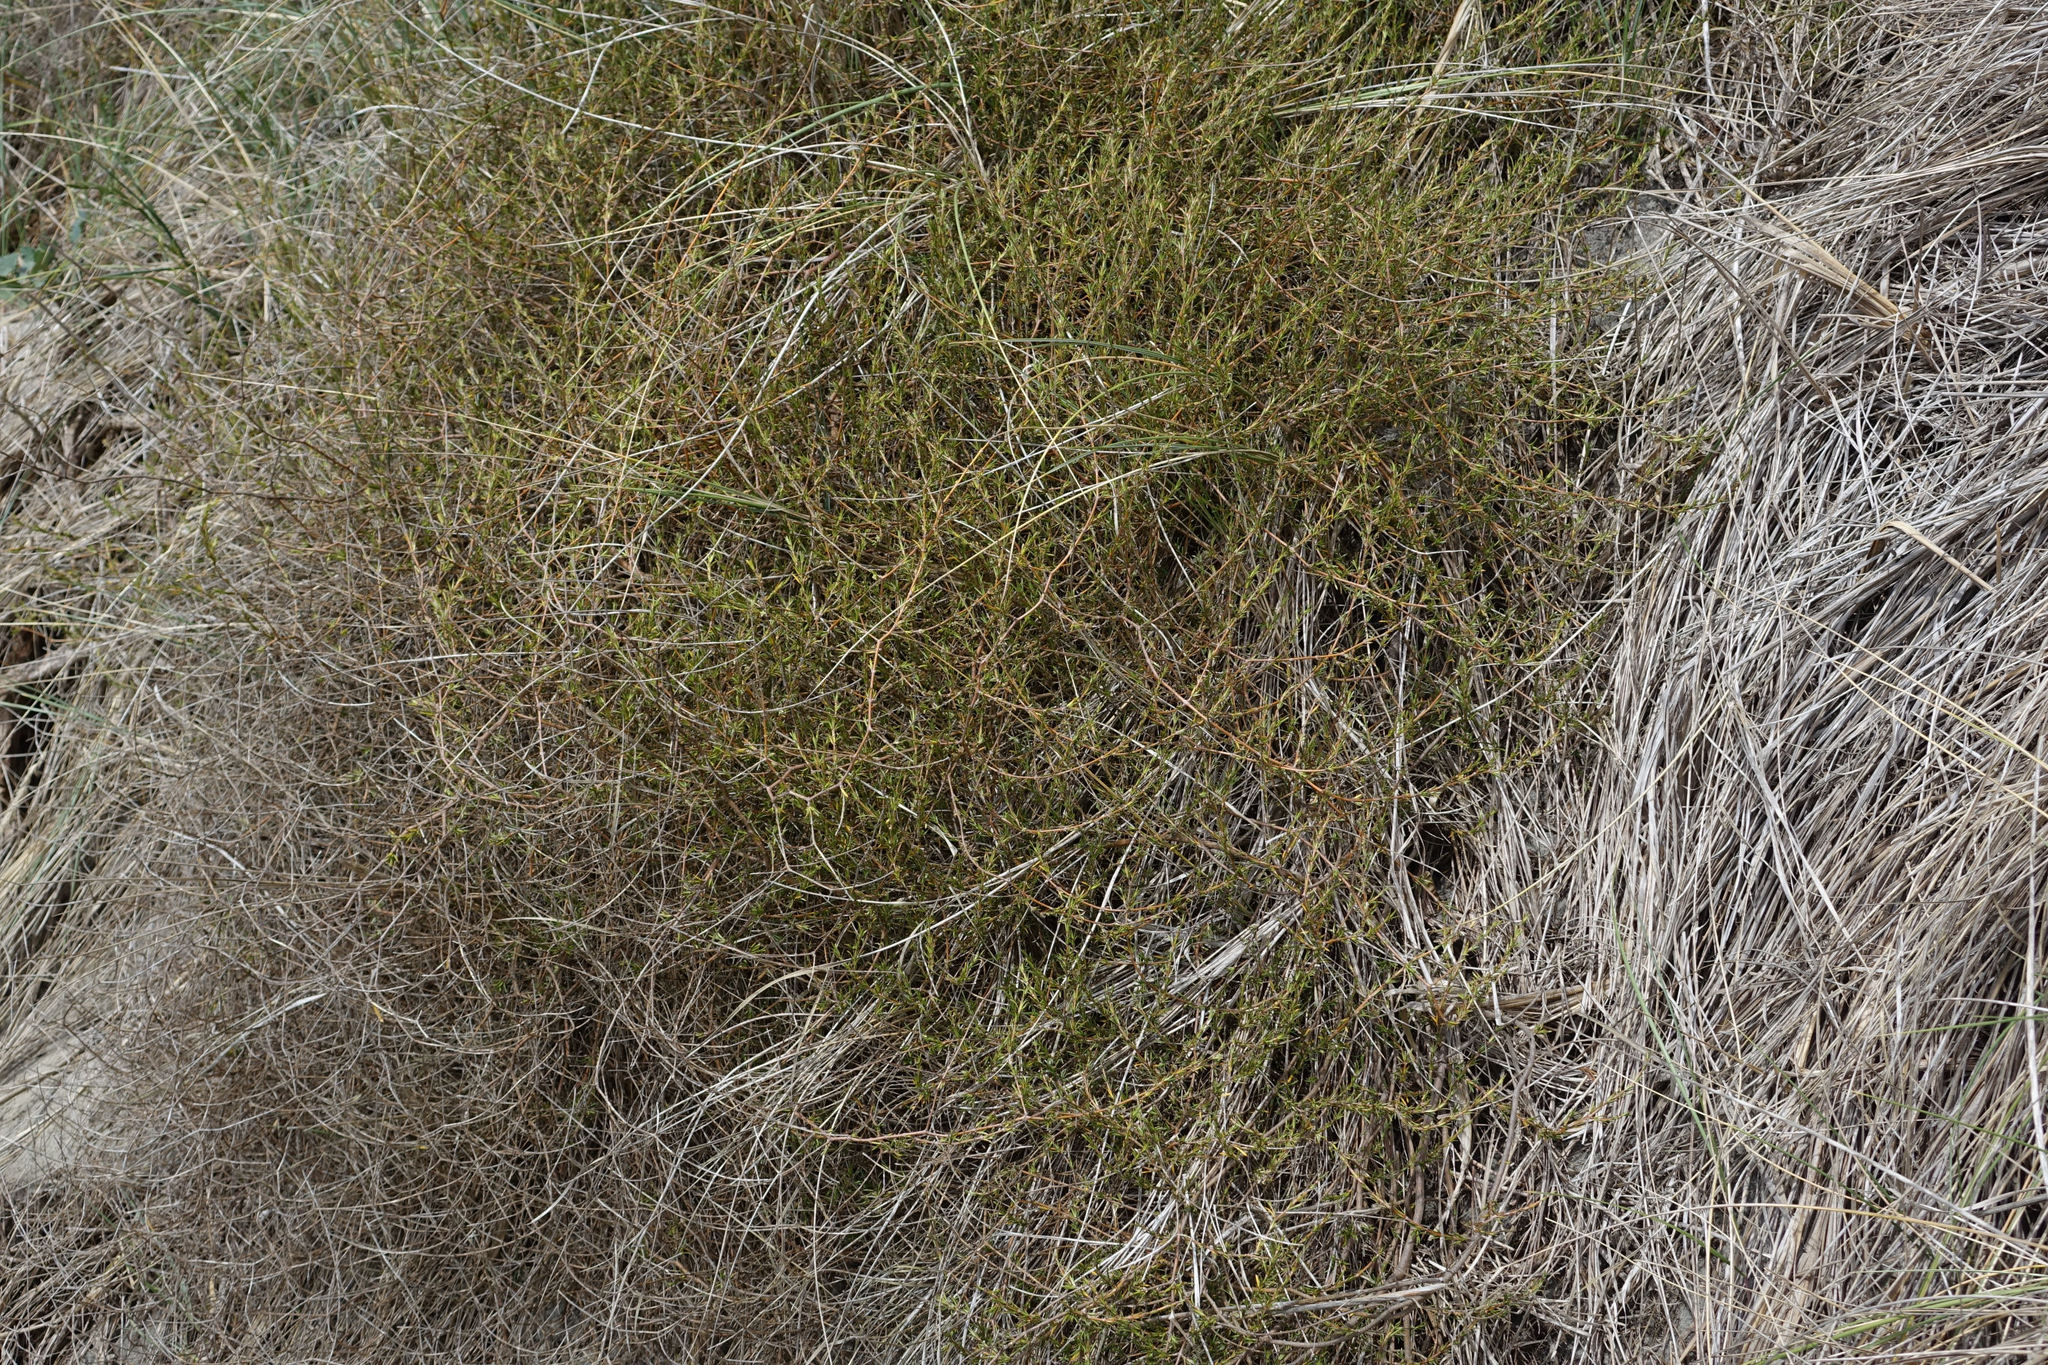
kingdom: Plantae
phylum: Tracheophyta
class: Magnoliopsida
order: Gentianales
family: Rubiaceae
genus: Coprosma
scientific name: Coprosma acerosa
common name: Sand coprosma
